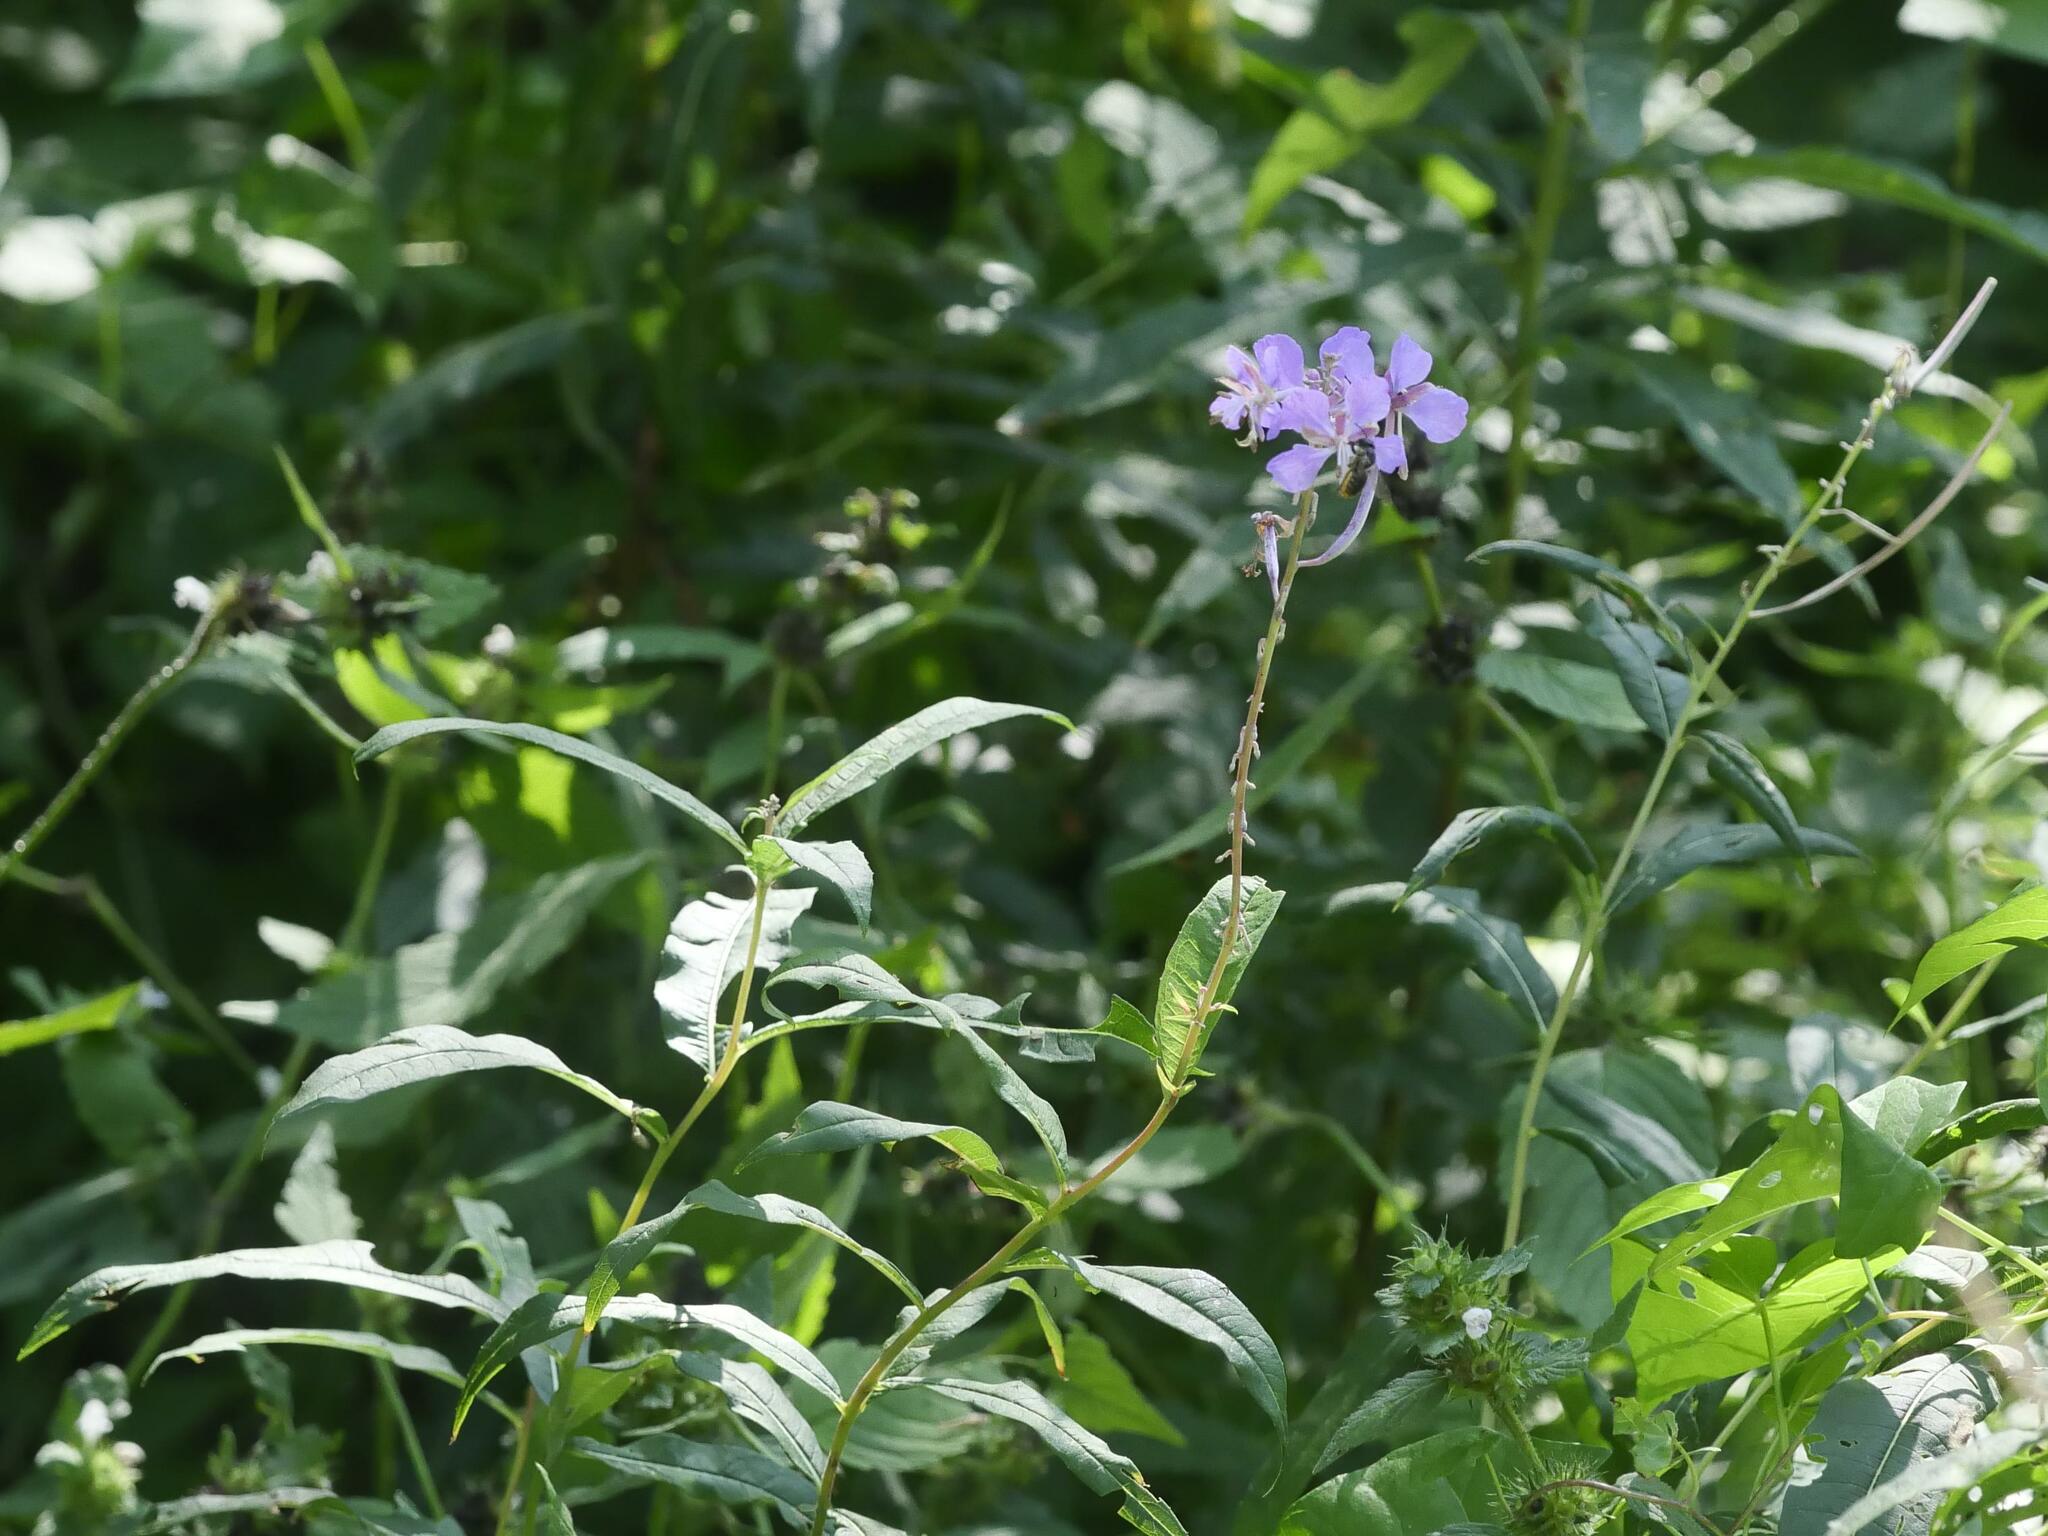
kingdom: Plantae
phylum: Tracheophyta
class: Magnoliopsida
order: Myrtales
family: Onagraceae
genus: Chamaenerion
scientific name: Chamaenerion angustifolium
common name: Fireweed
